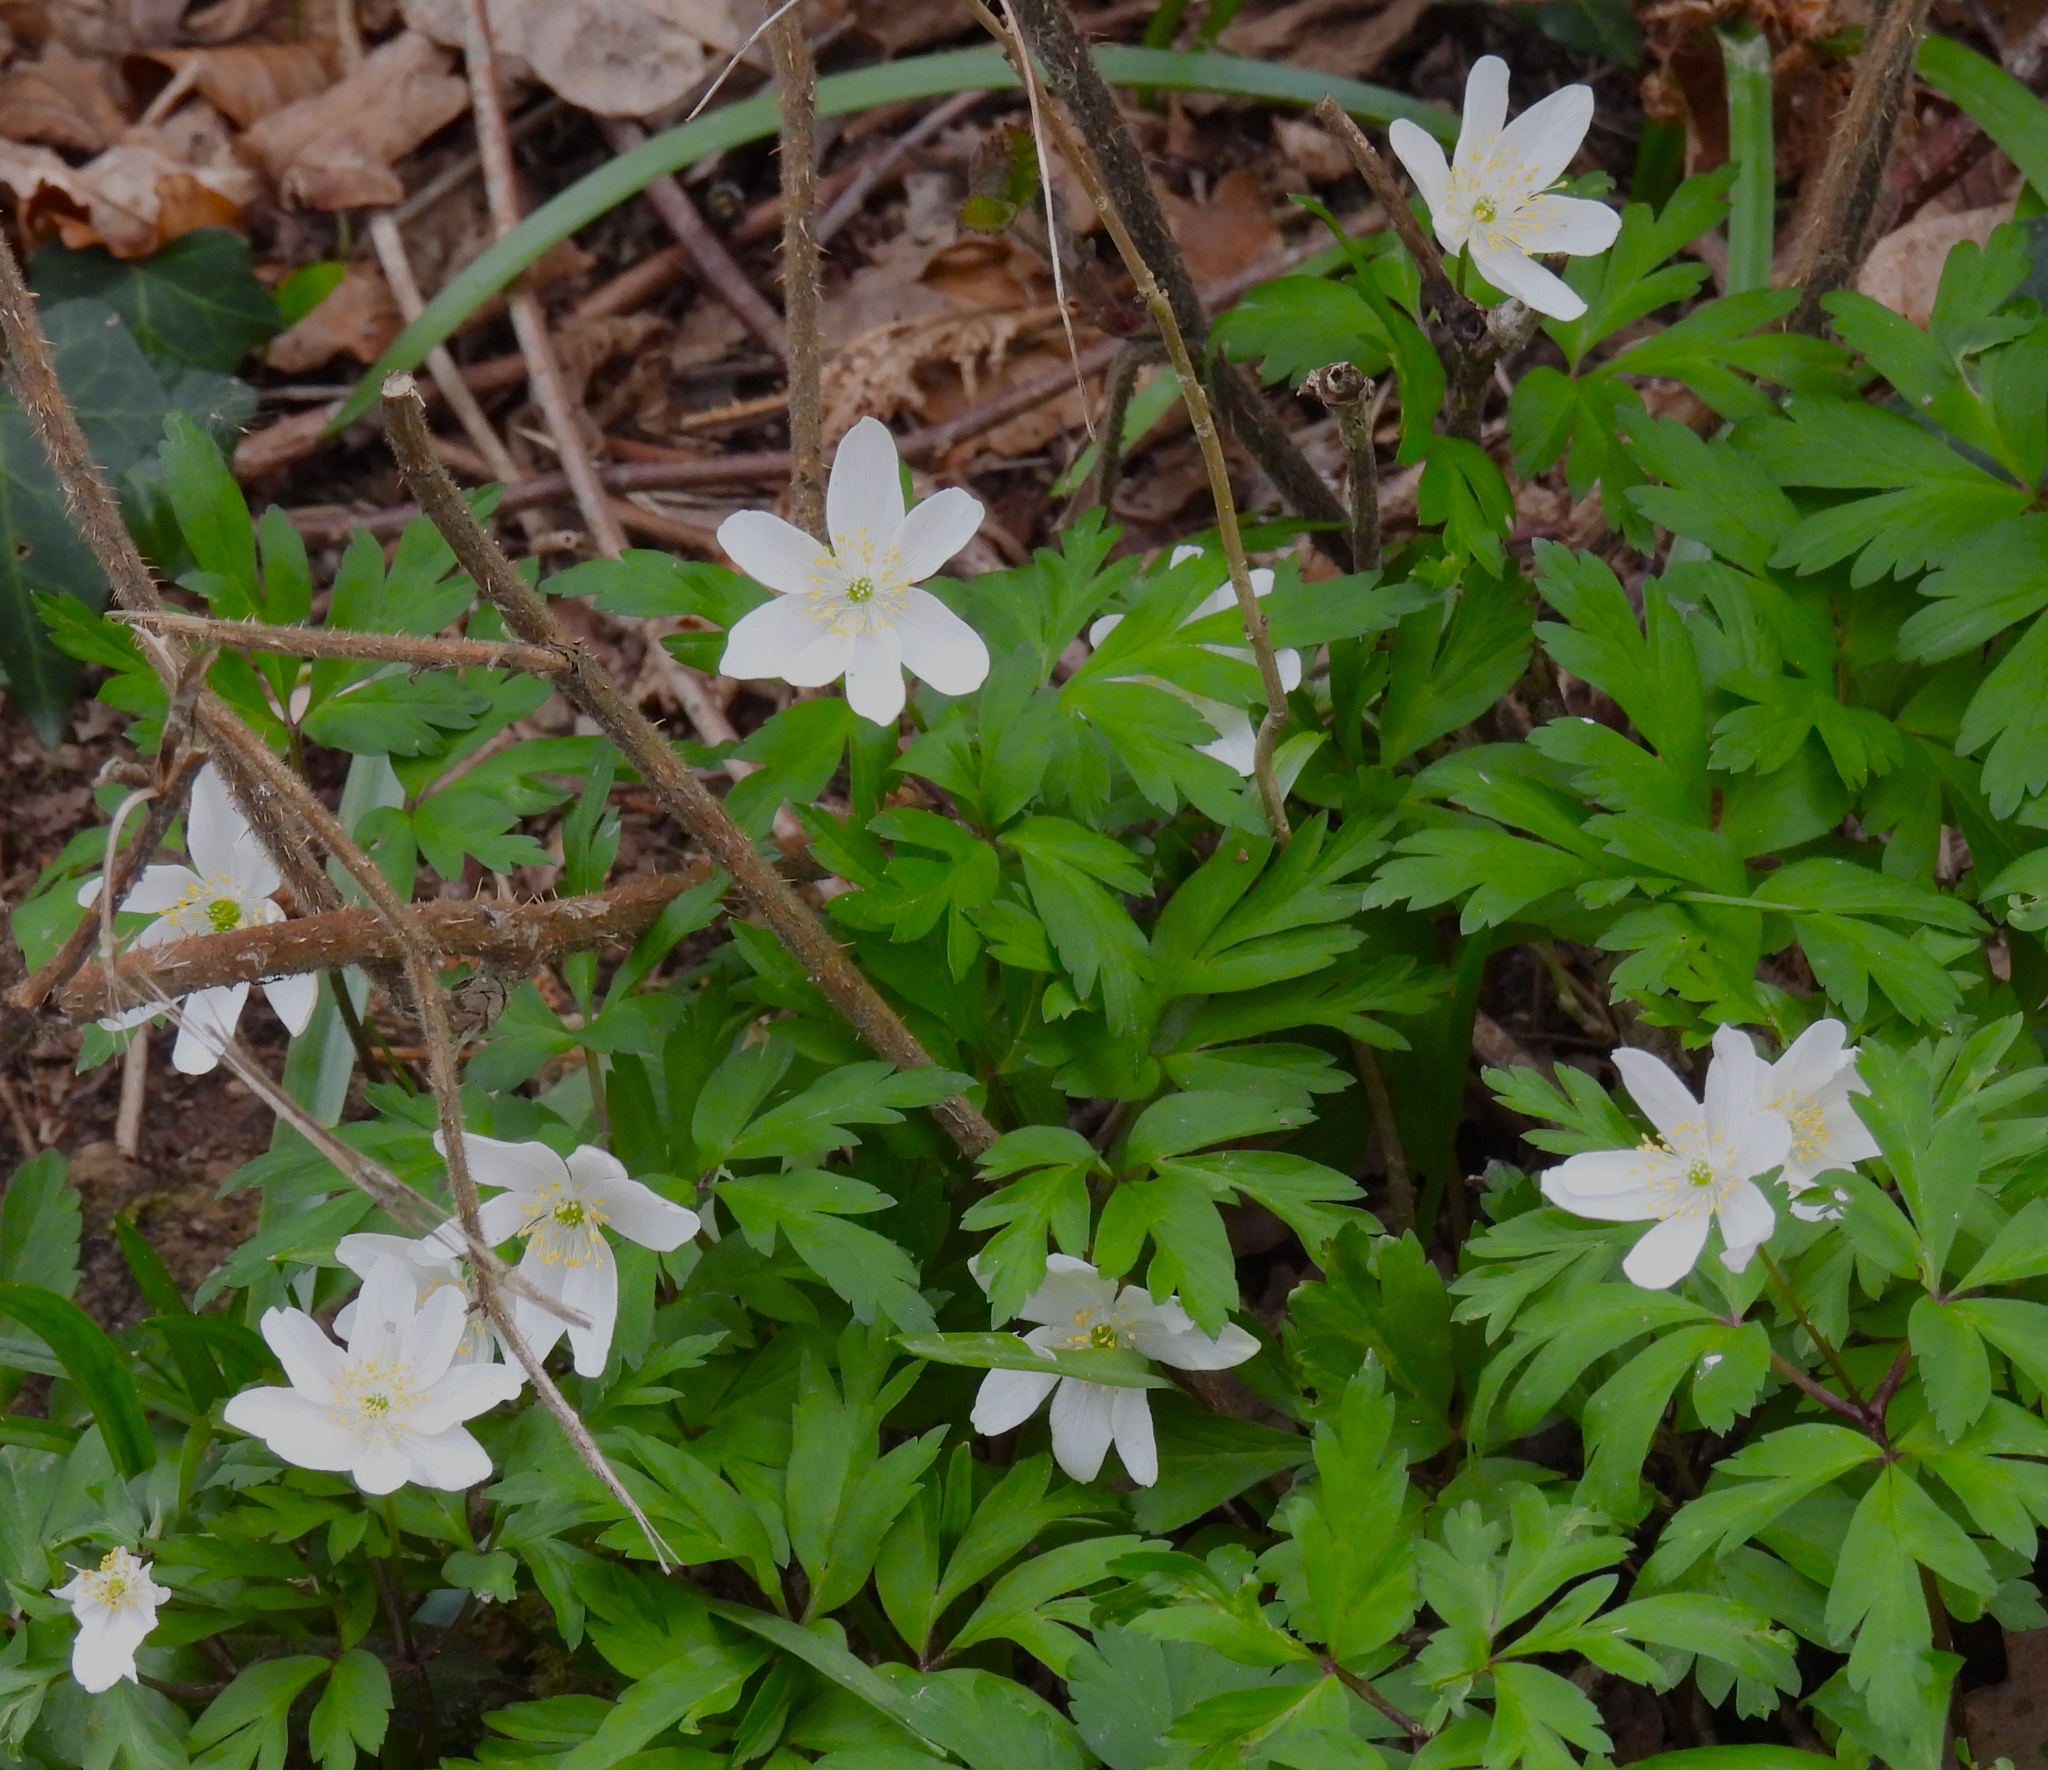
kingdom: Plantae
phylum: Tracheophyta
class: Magnoliopsida
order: Ranunculales
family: Ranunculaceae
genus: Anemone
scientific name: Anemone nemorosa
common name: Wood anemone
